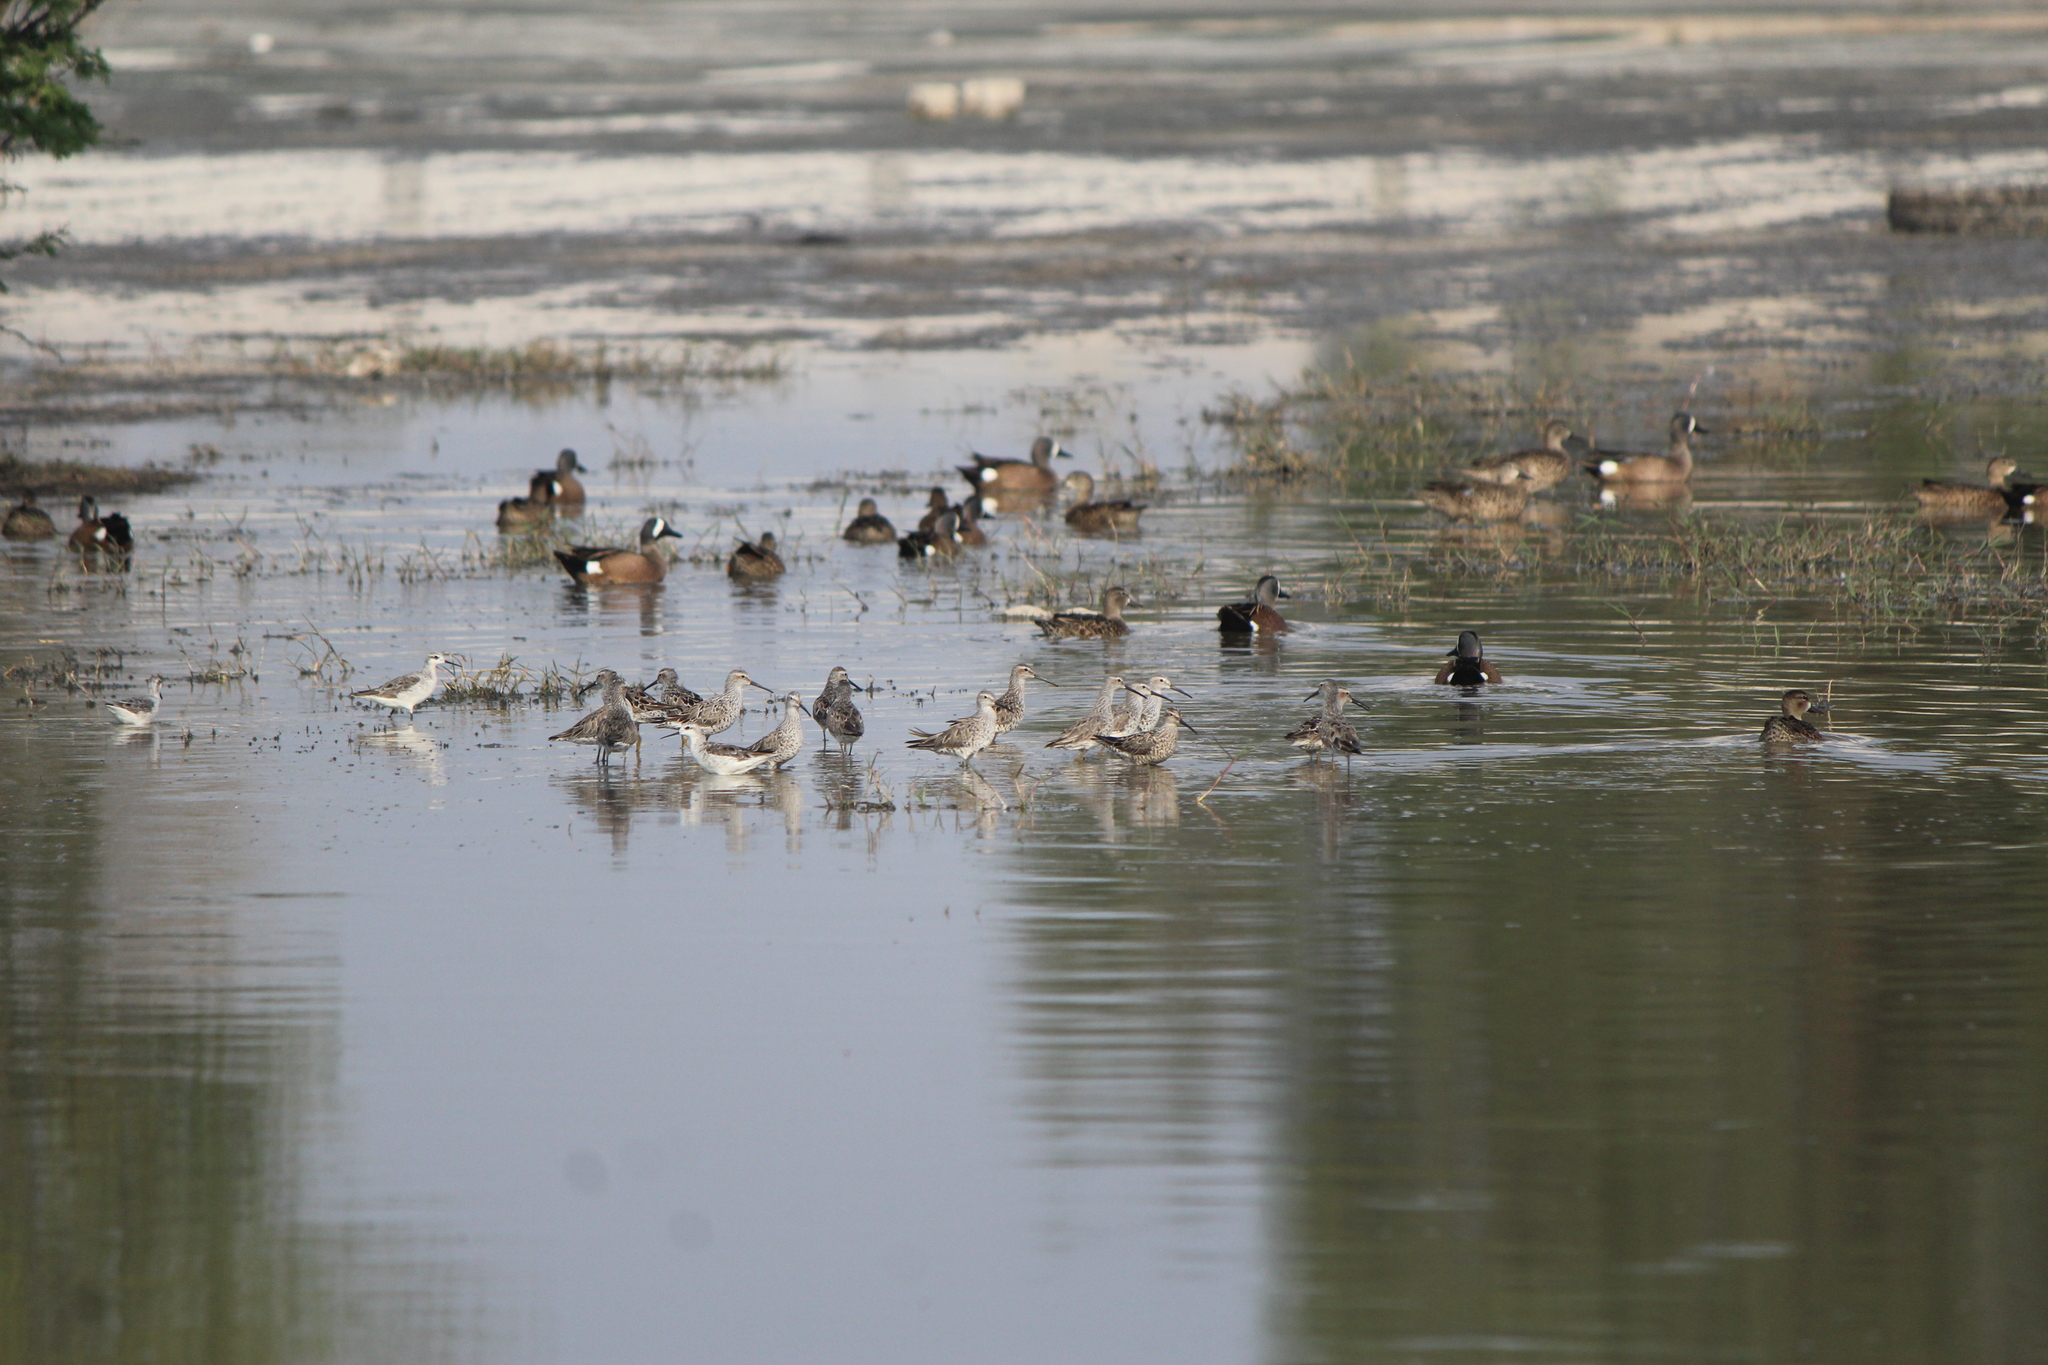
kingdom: Animalia
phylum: Chordata
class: Aves
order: Charadriiformes
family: Scolopacidae
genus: Calidris
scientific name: Calidris himantopus
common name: Stilt sandpiper
